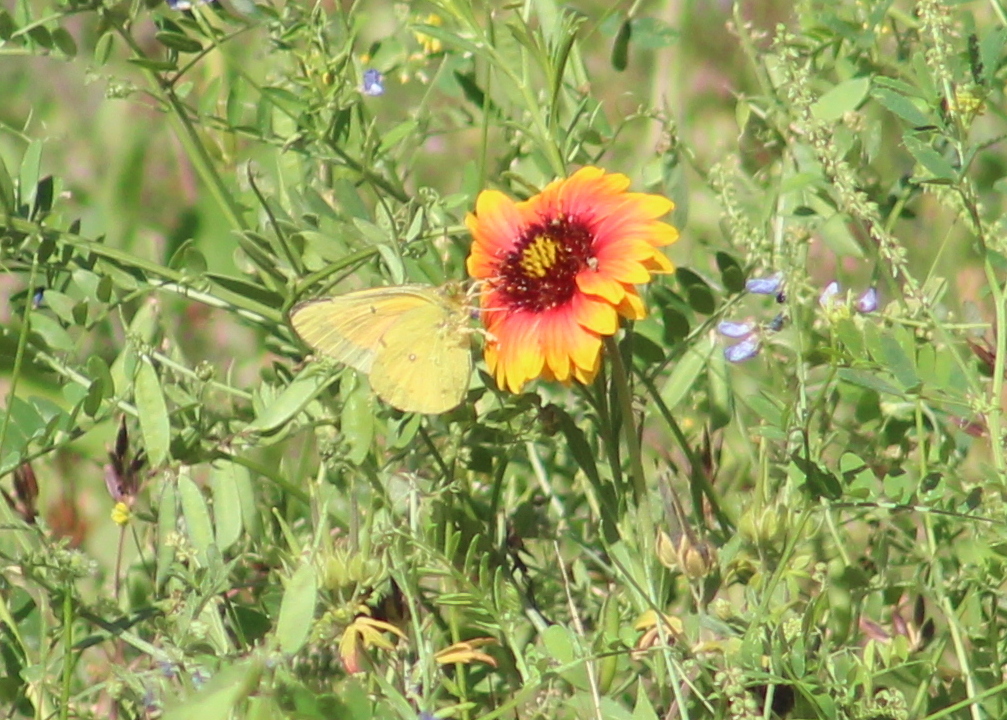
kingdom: Animalia
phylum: Arthropoda
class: Insecta
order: Lepidoptera
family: Pieridae
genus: Colias
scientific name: Colias eurytheme
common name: Alfalfa butterfly
